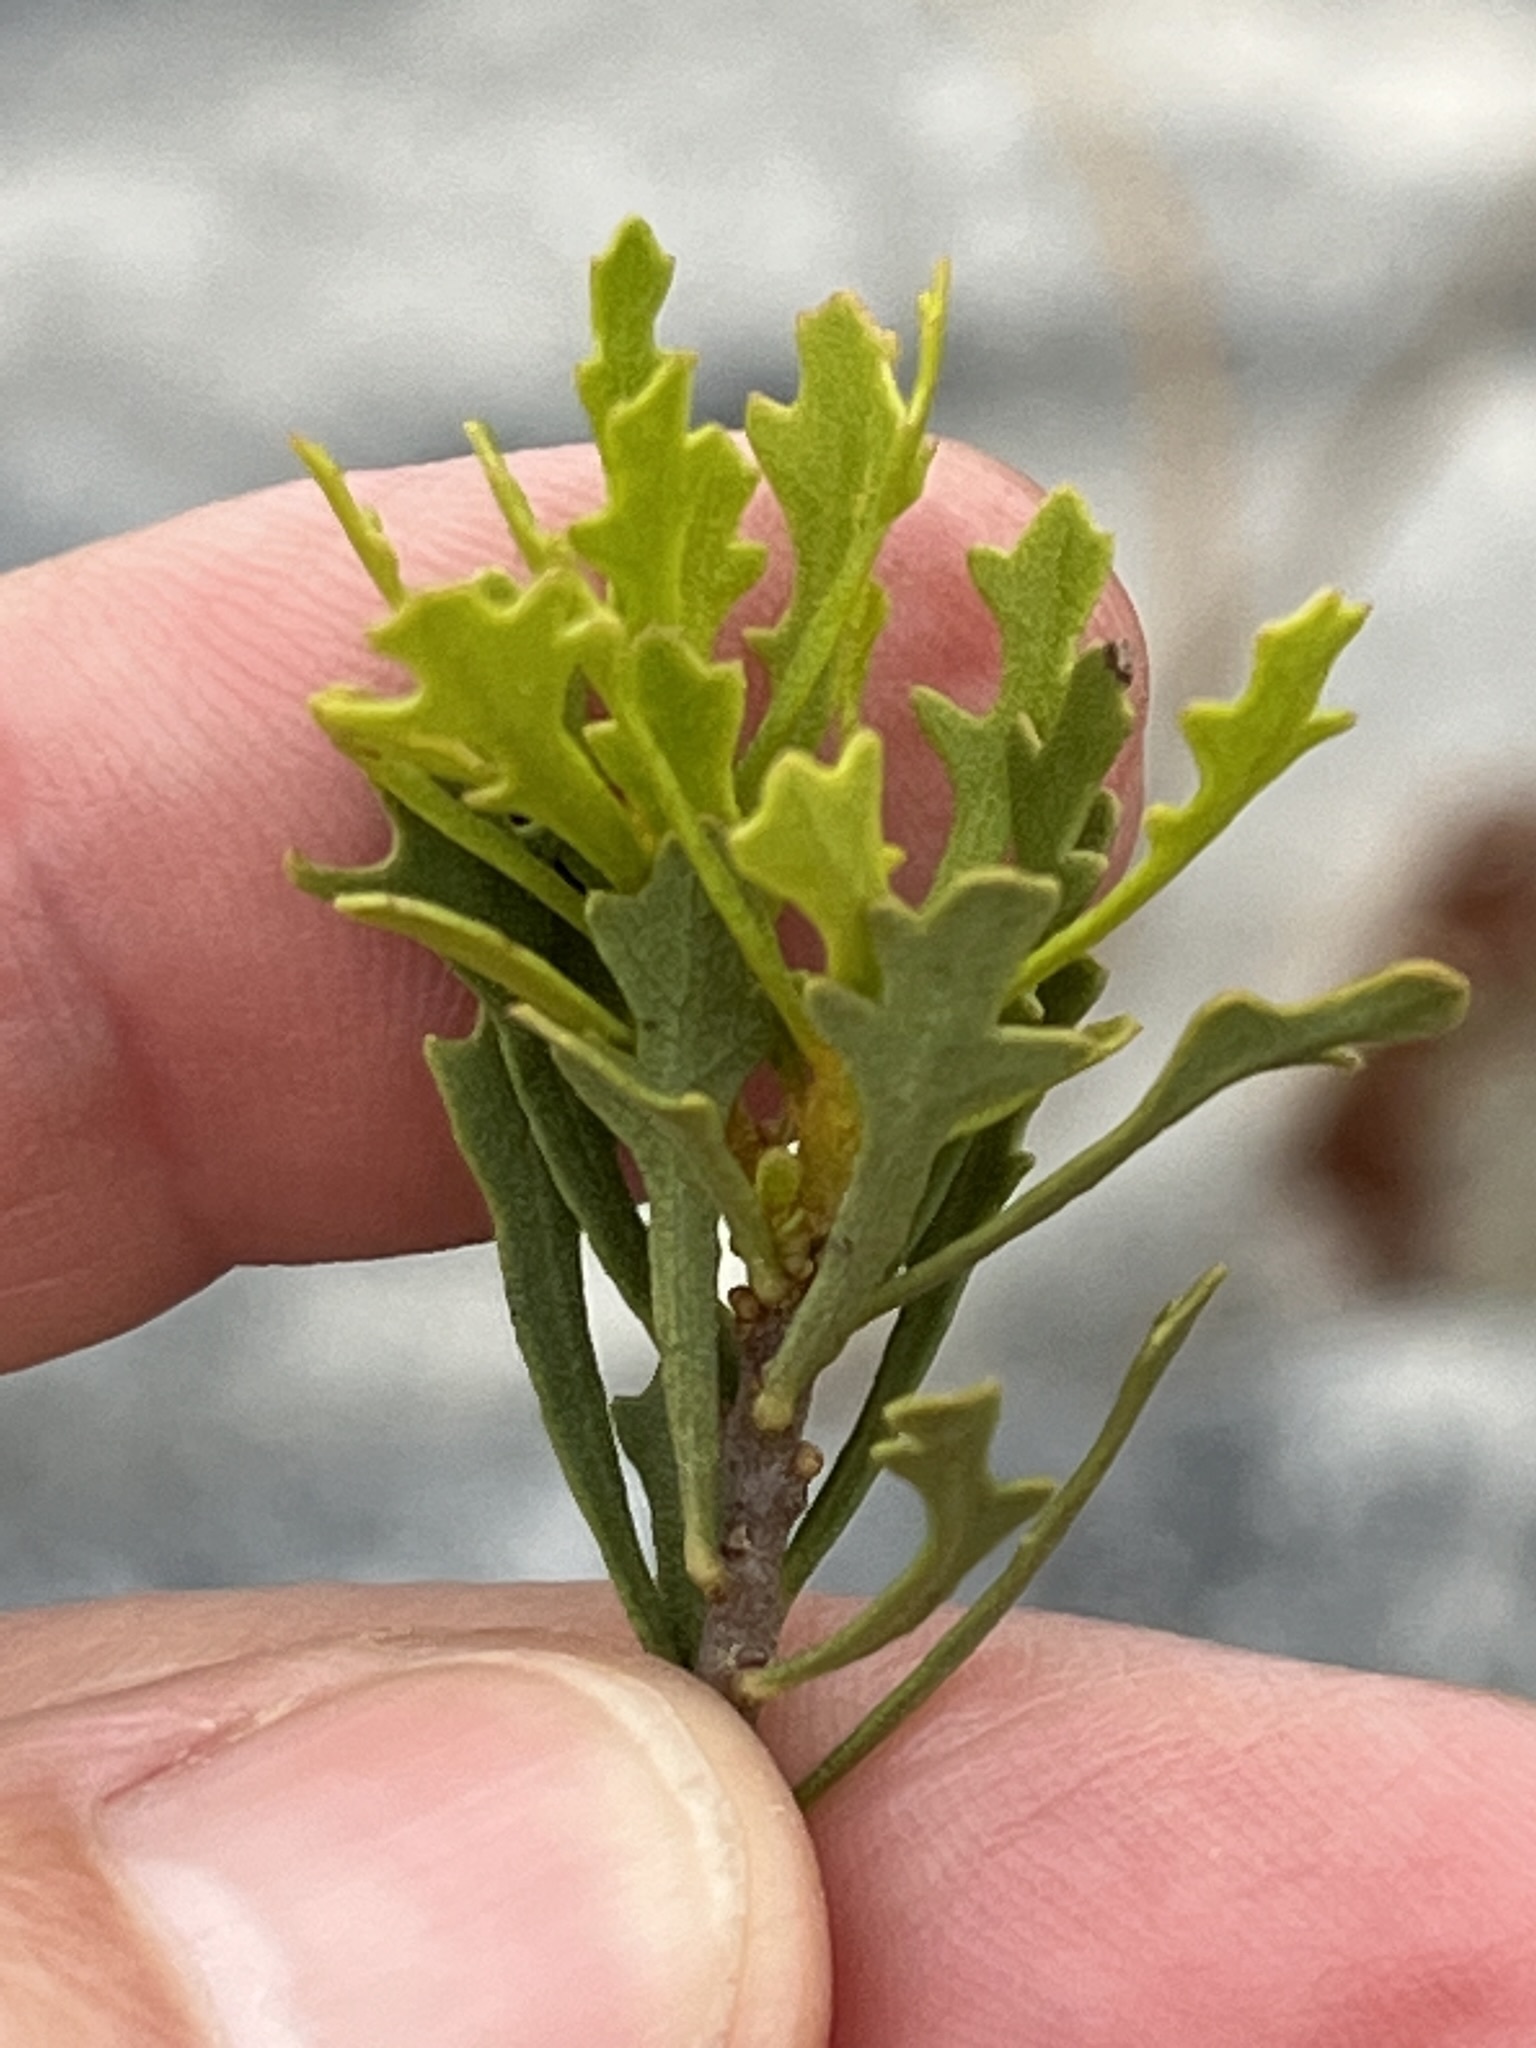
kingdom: Plantae
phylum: Tracheophyta
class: Magnoliopsida
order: Fagales
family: Myricaceae
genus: Morella
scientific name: Morella quercifolia
